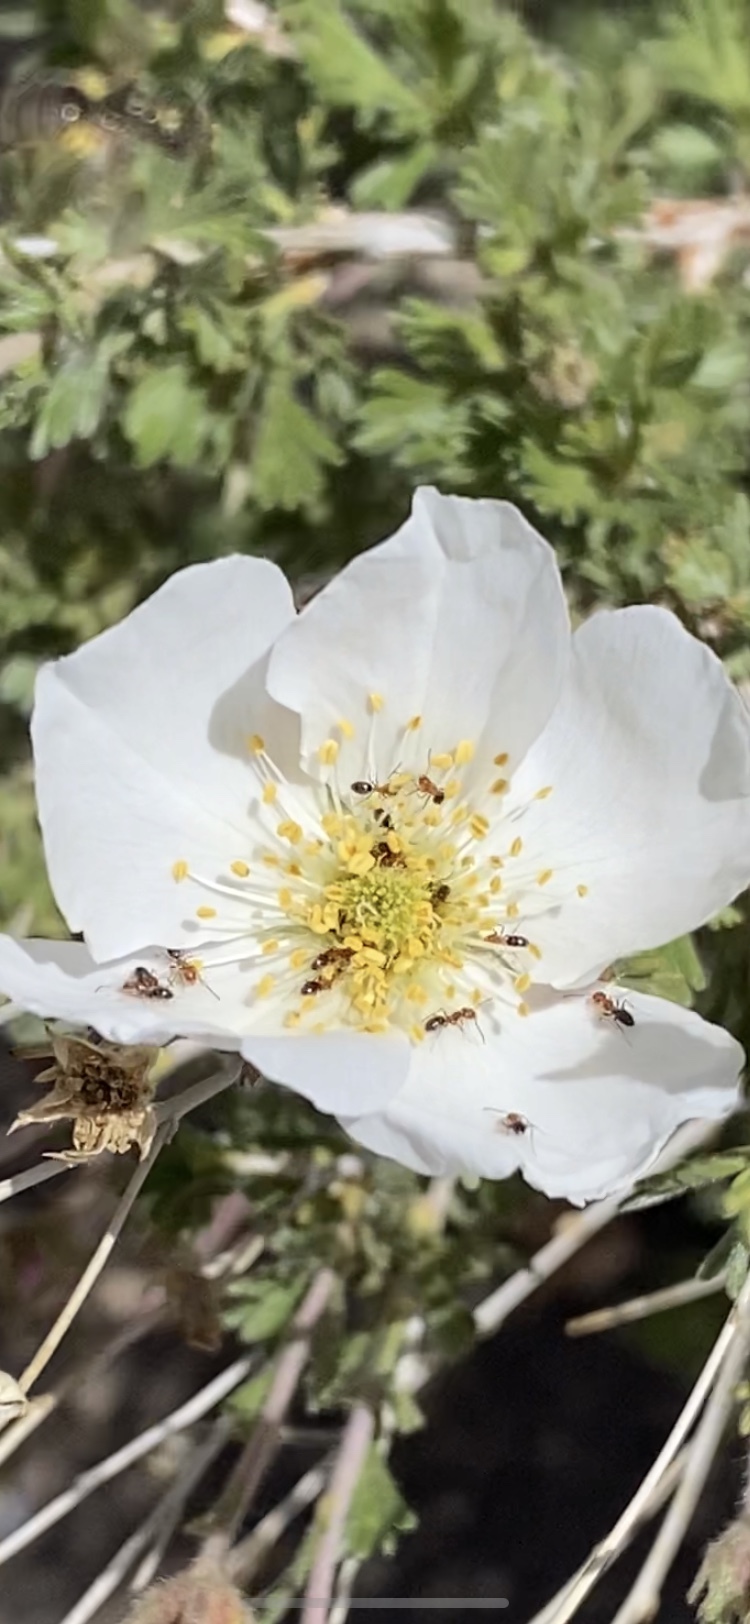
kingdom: Animalia
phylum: Arthropoda
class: Insecta
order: Hymenoptera
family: Formicidae
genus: Forelius
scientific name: Forelius
